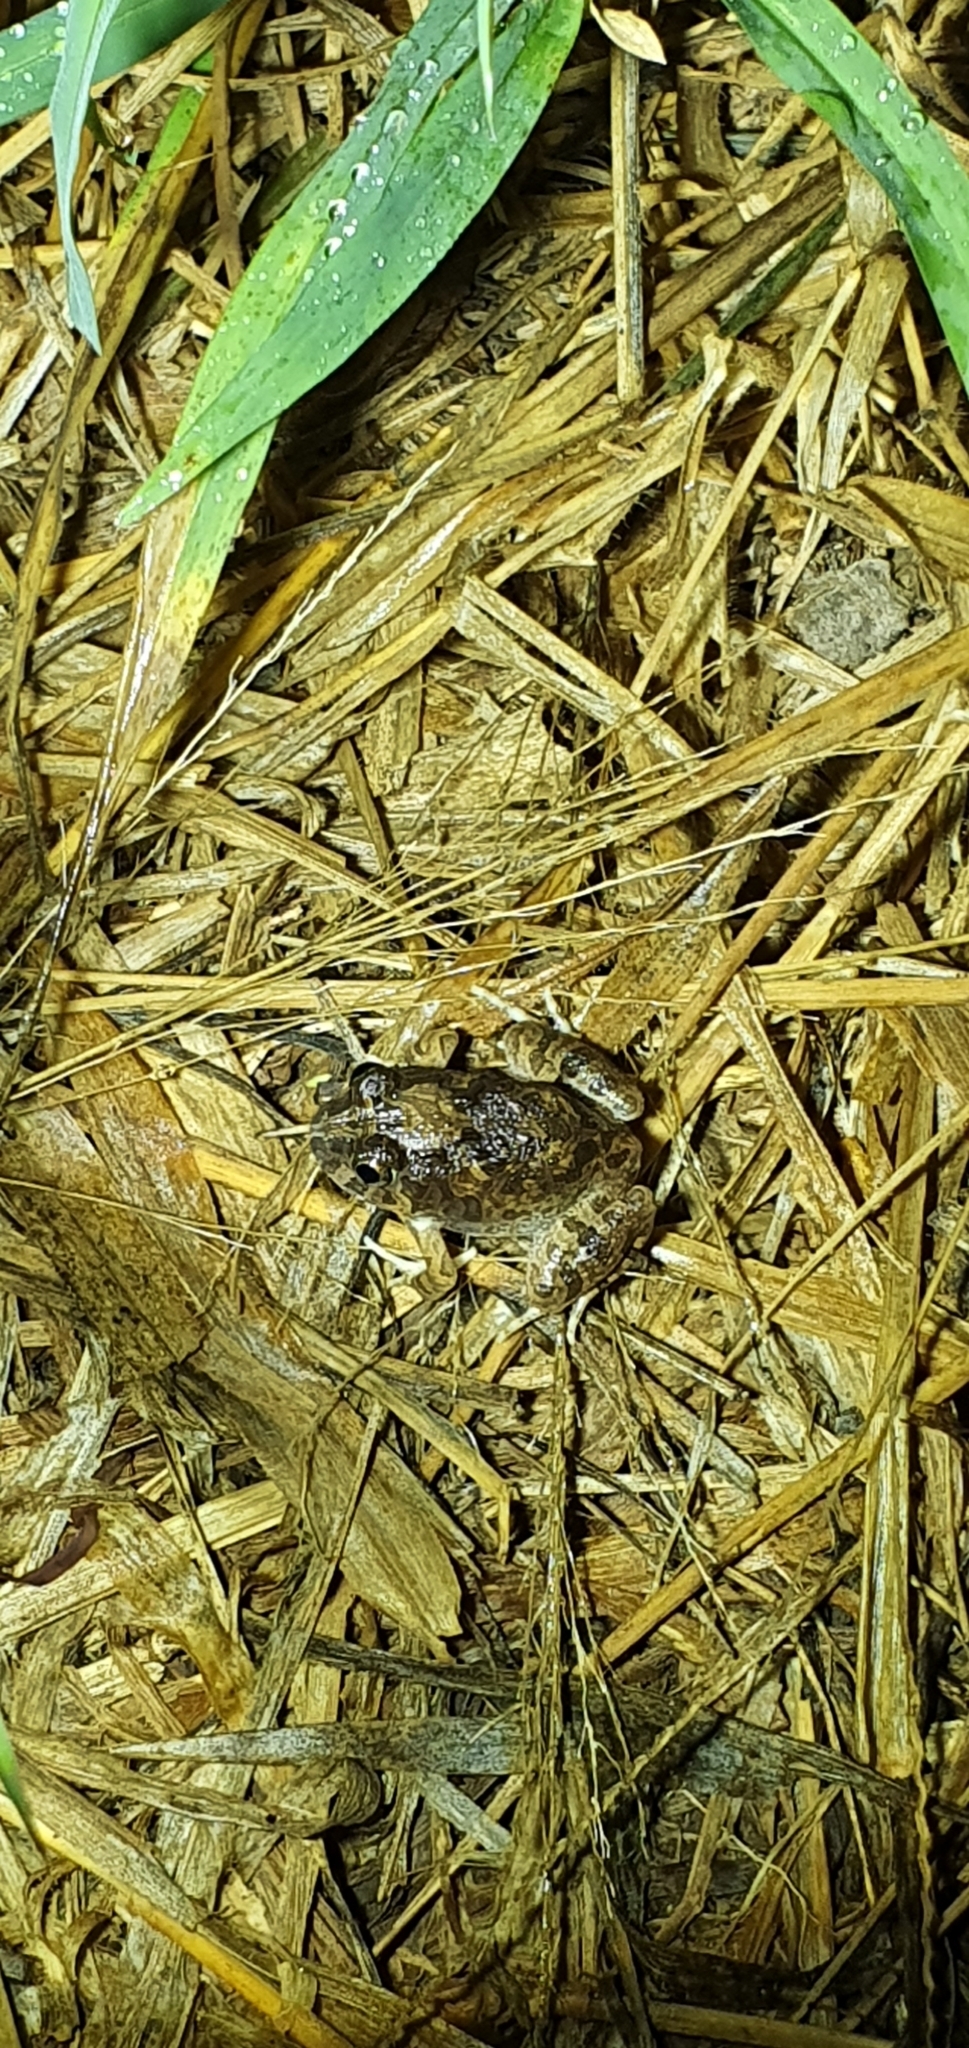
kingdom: Animalia
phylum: Chordata
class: Amphibia
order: Anura
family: Limnodynastidae
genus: Platyplectrum
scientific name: Platyplectrum ornatum
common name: Ornate burrowing frog
